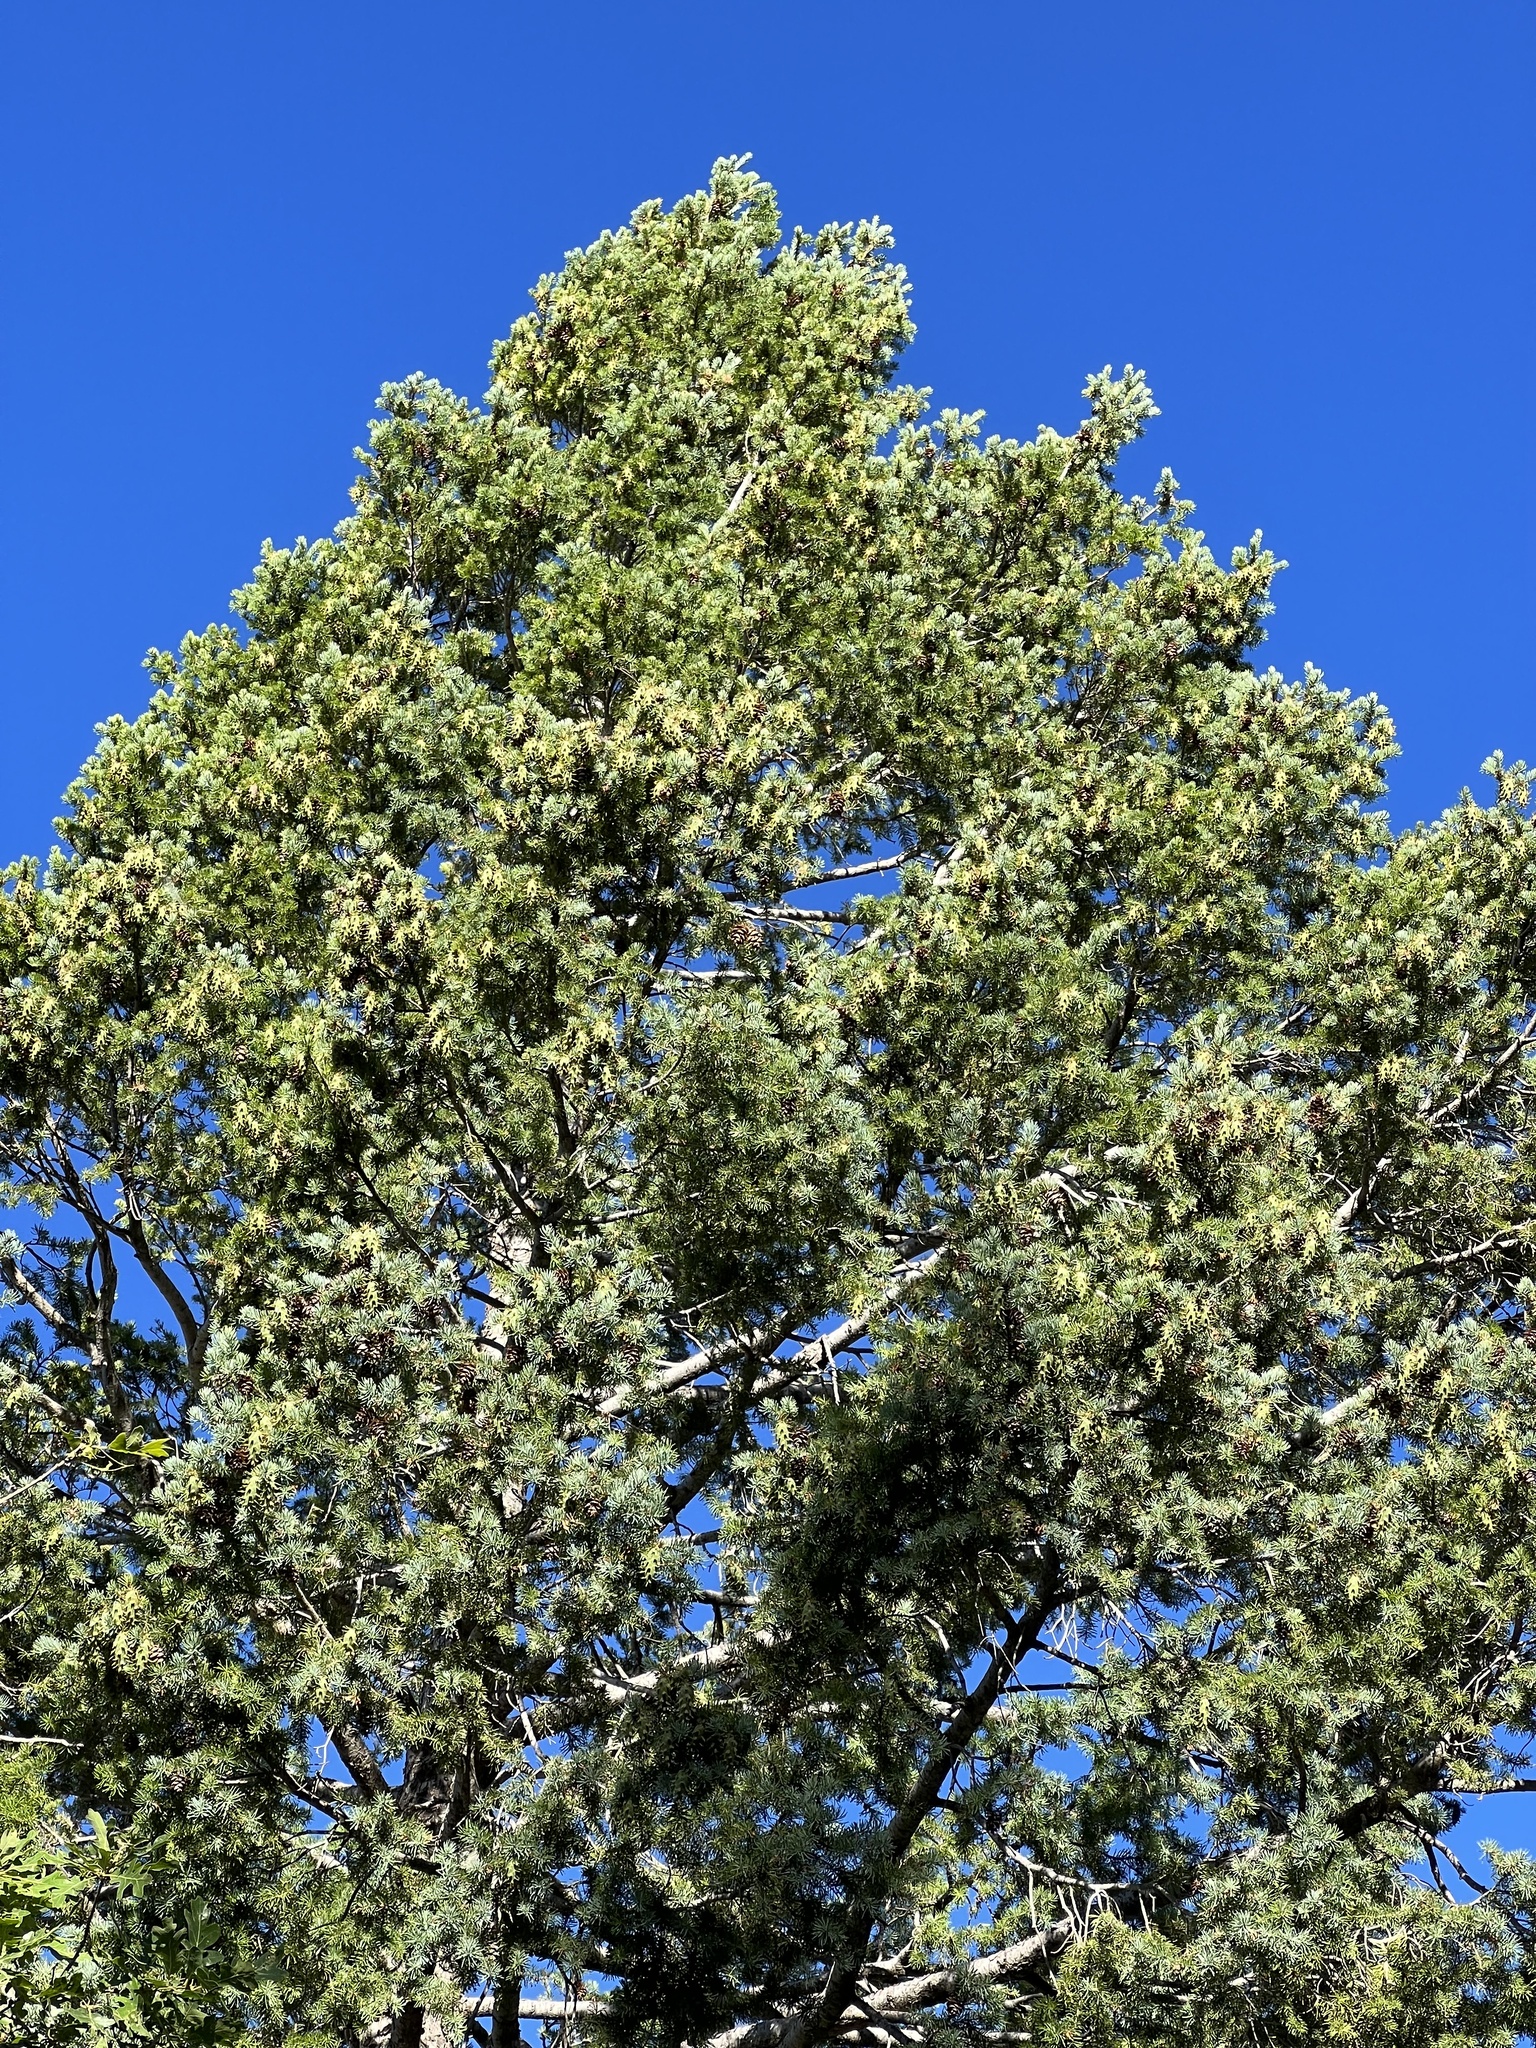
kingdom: Plantae
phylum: Tracheophyta
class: Pinopsida
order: Pinales
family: Pinaceae
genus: Abies
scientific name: Abies concolor
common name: Colorado fir
